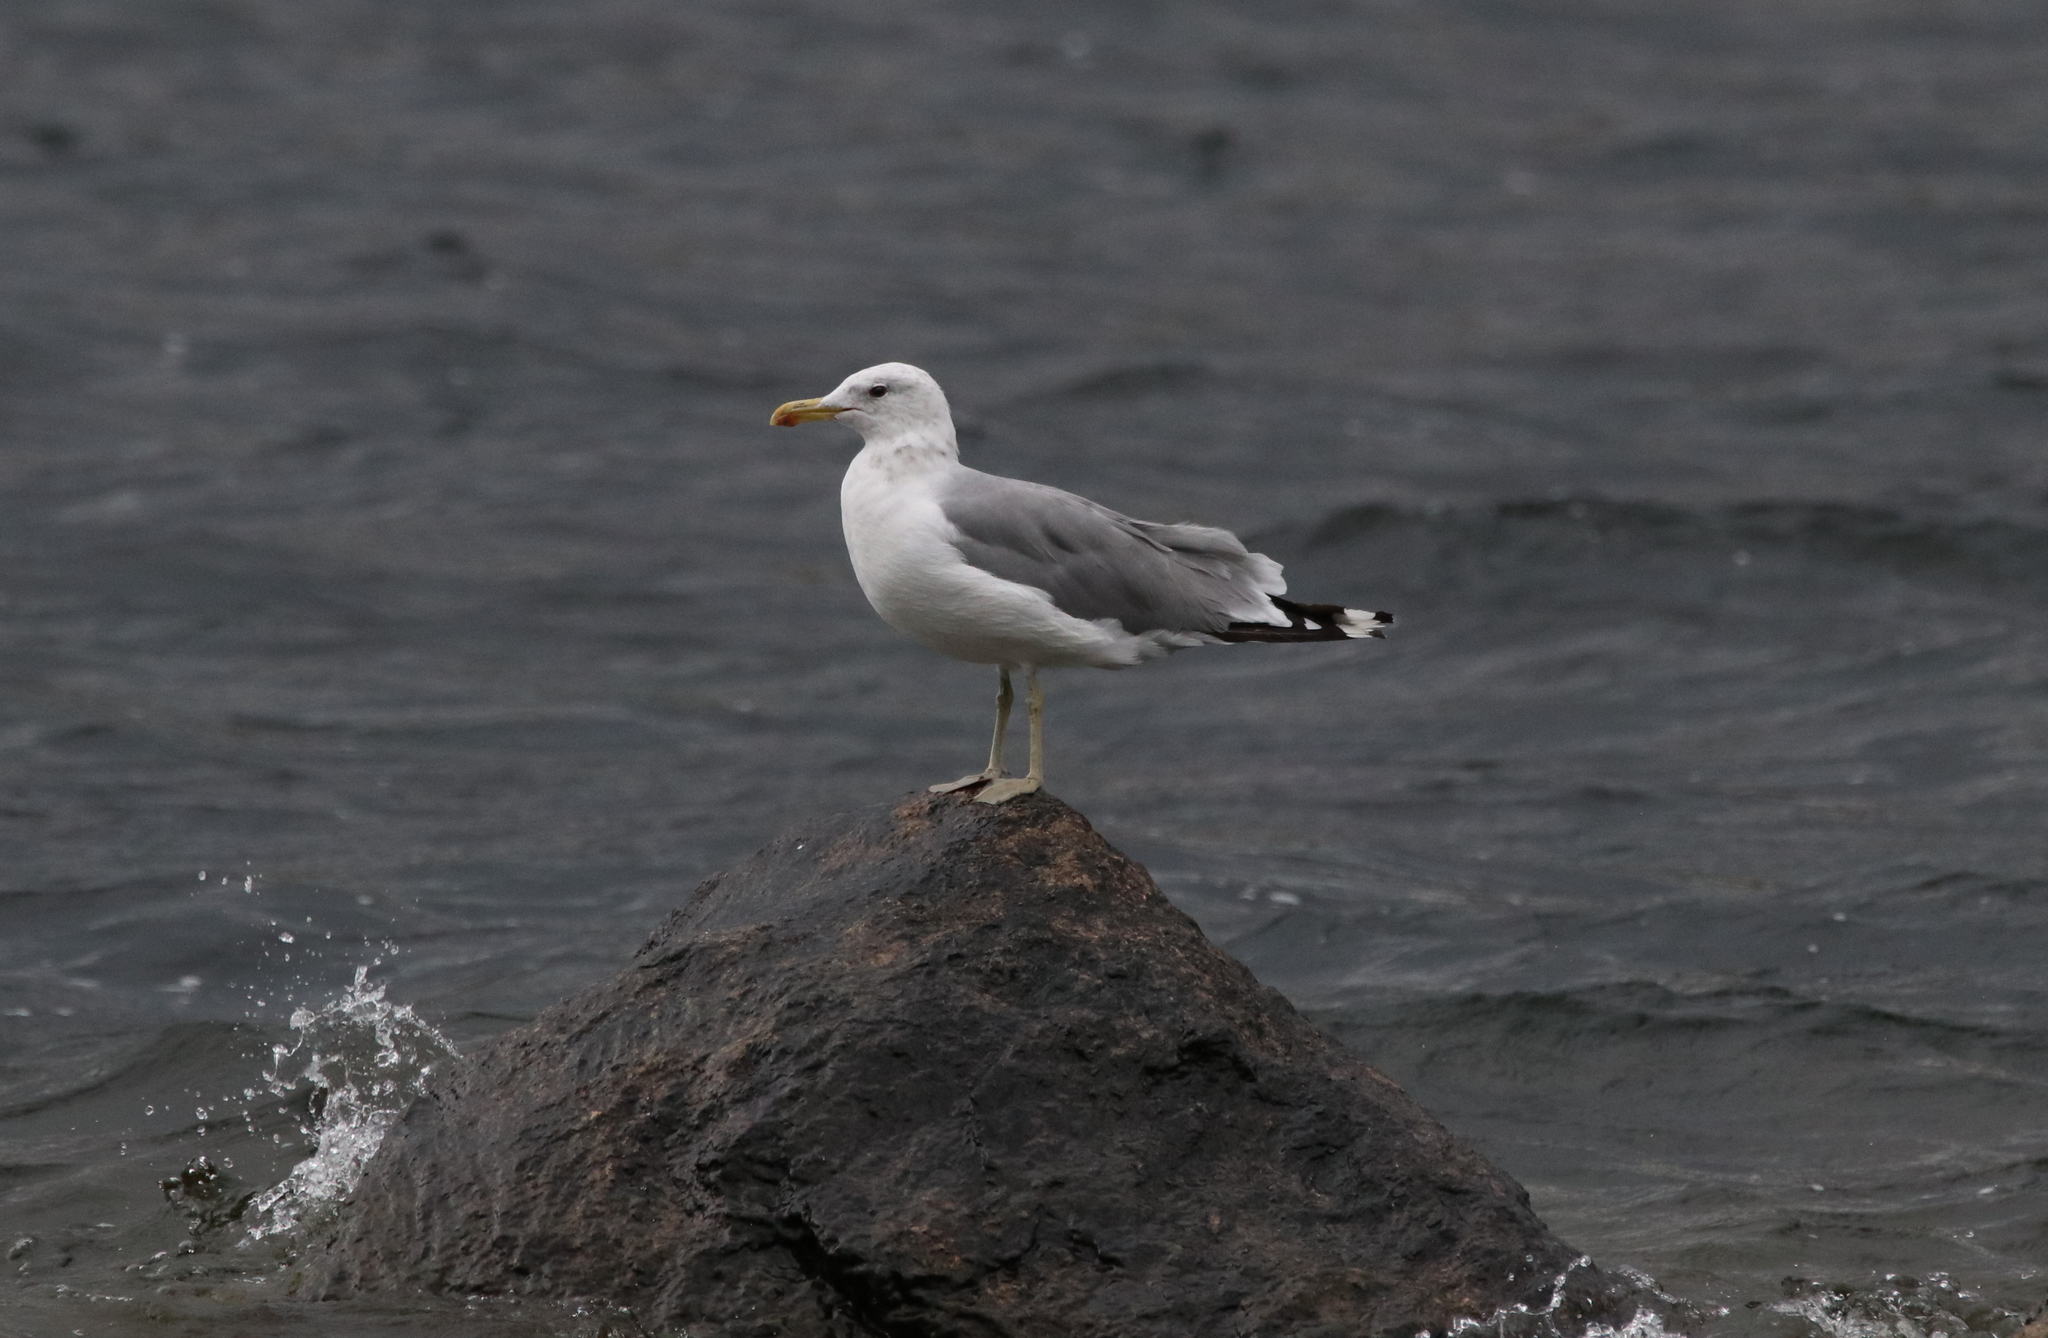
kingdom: Animalia
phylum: Chordata
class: Aves
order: Charadriiformes
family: Laridae
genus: Larus
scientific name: Larus californicus
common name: California gull
